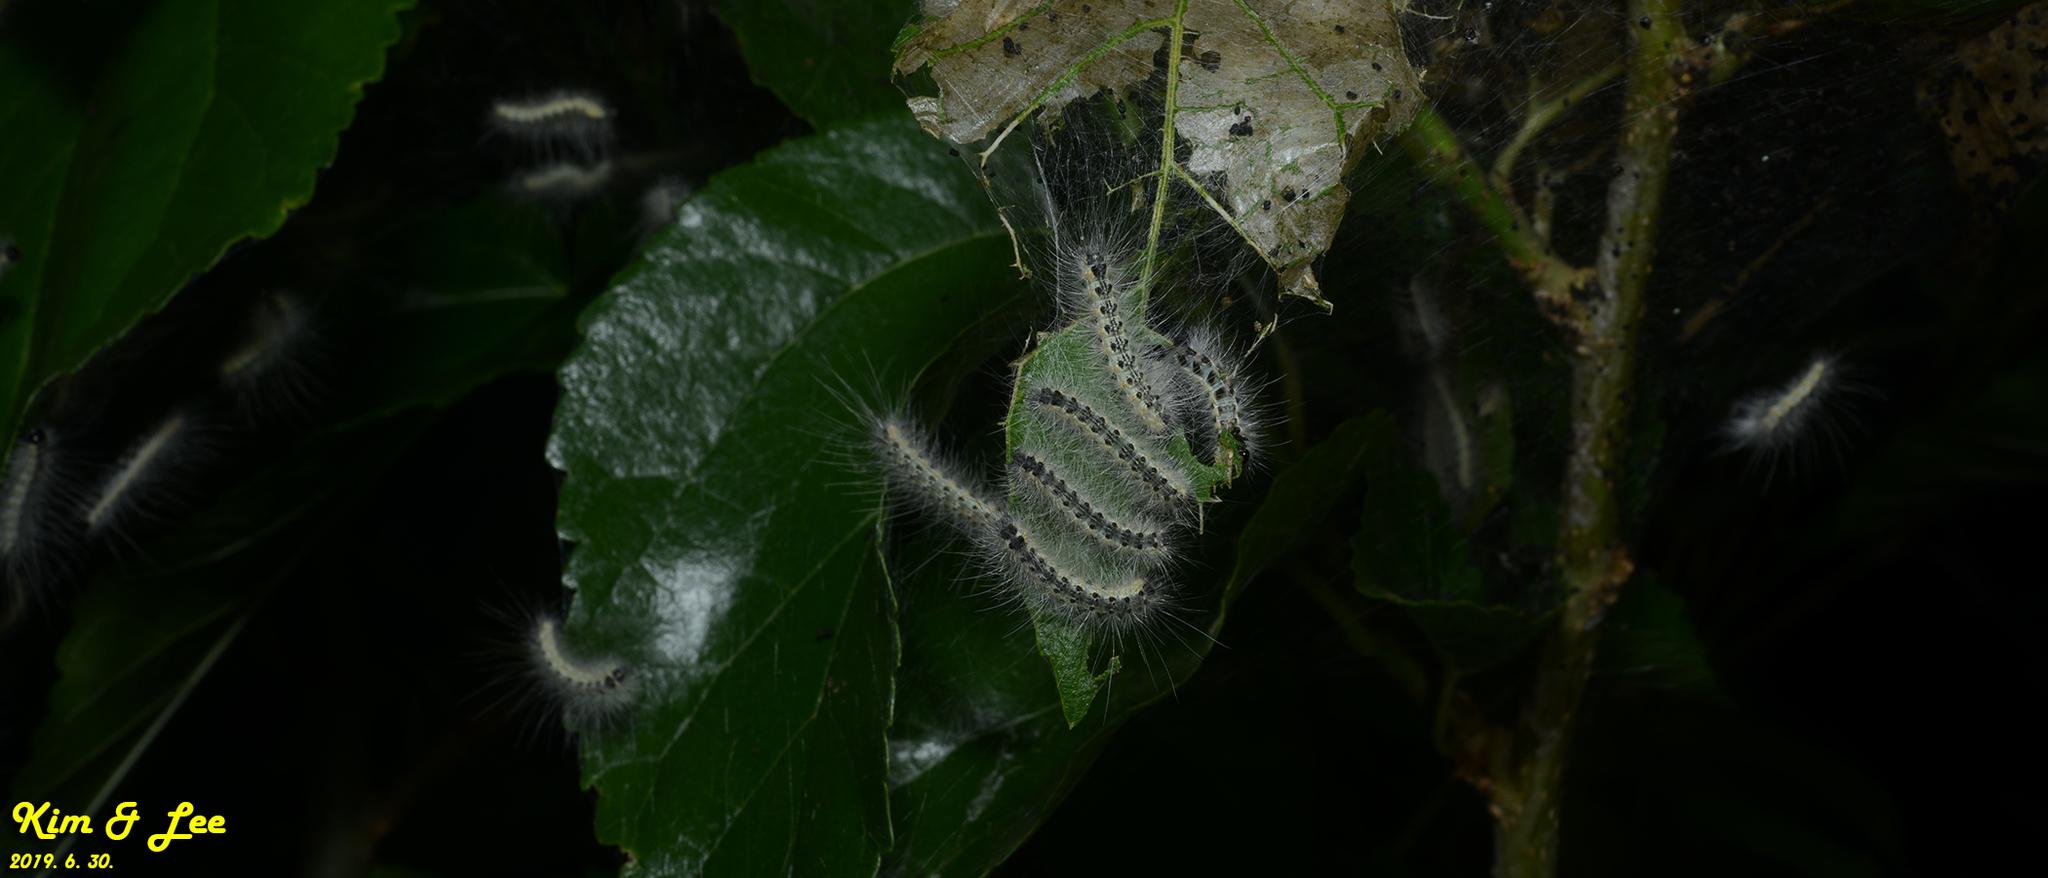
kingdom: Animalia
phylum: Arthropoda
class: Insecta
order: Lepidoptera
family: Erebidae
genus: Hyphantria
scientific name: Hyphantria cunea
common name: American white moth
